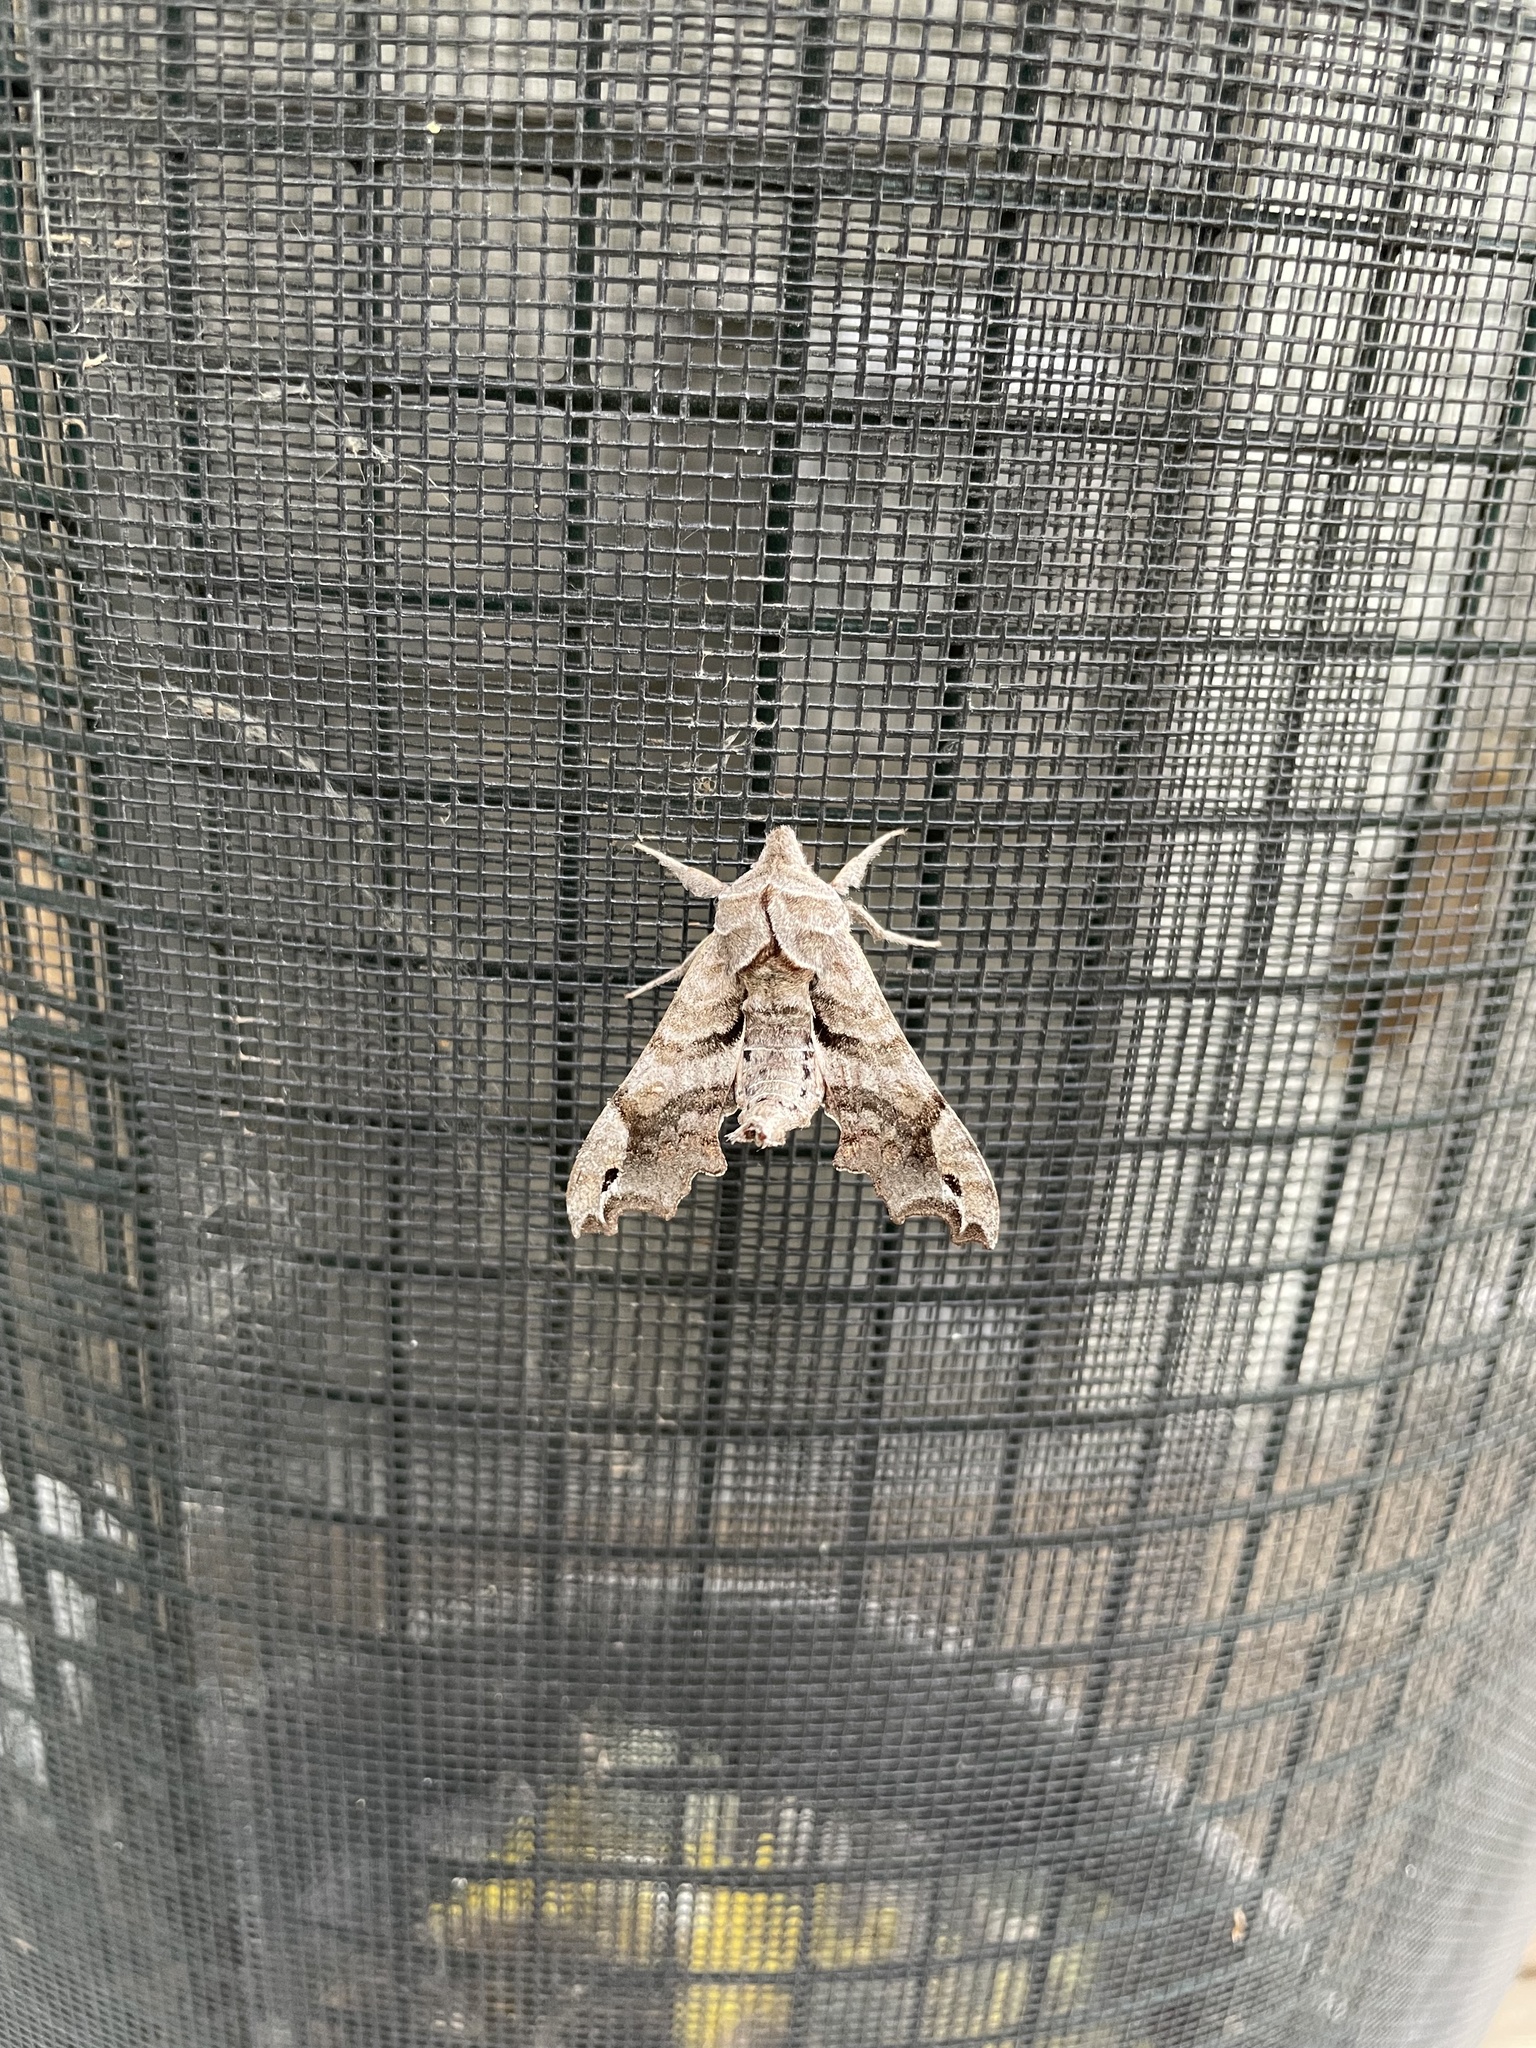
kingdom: Animalia
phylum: Arthropoda
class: Insecta
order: Lepidoptera
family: Sphingidae
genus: Deidamia
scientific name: Deidamia inscriptum
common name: Lettered sphinx
